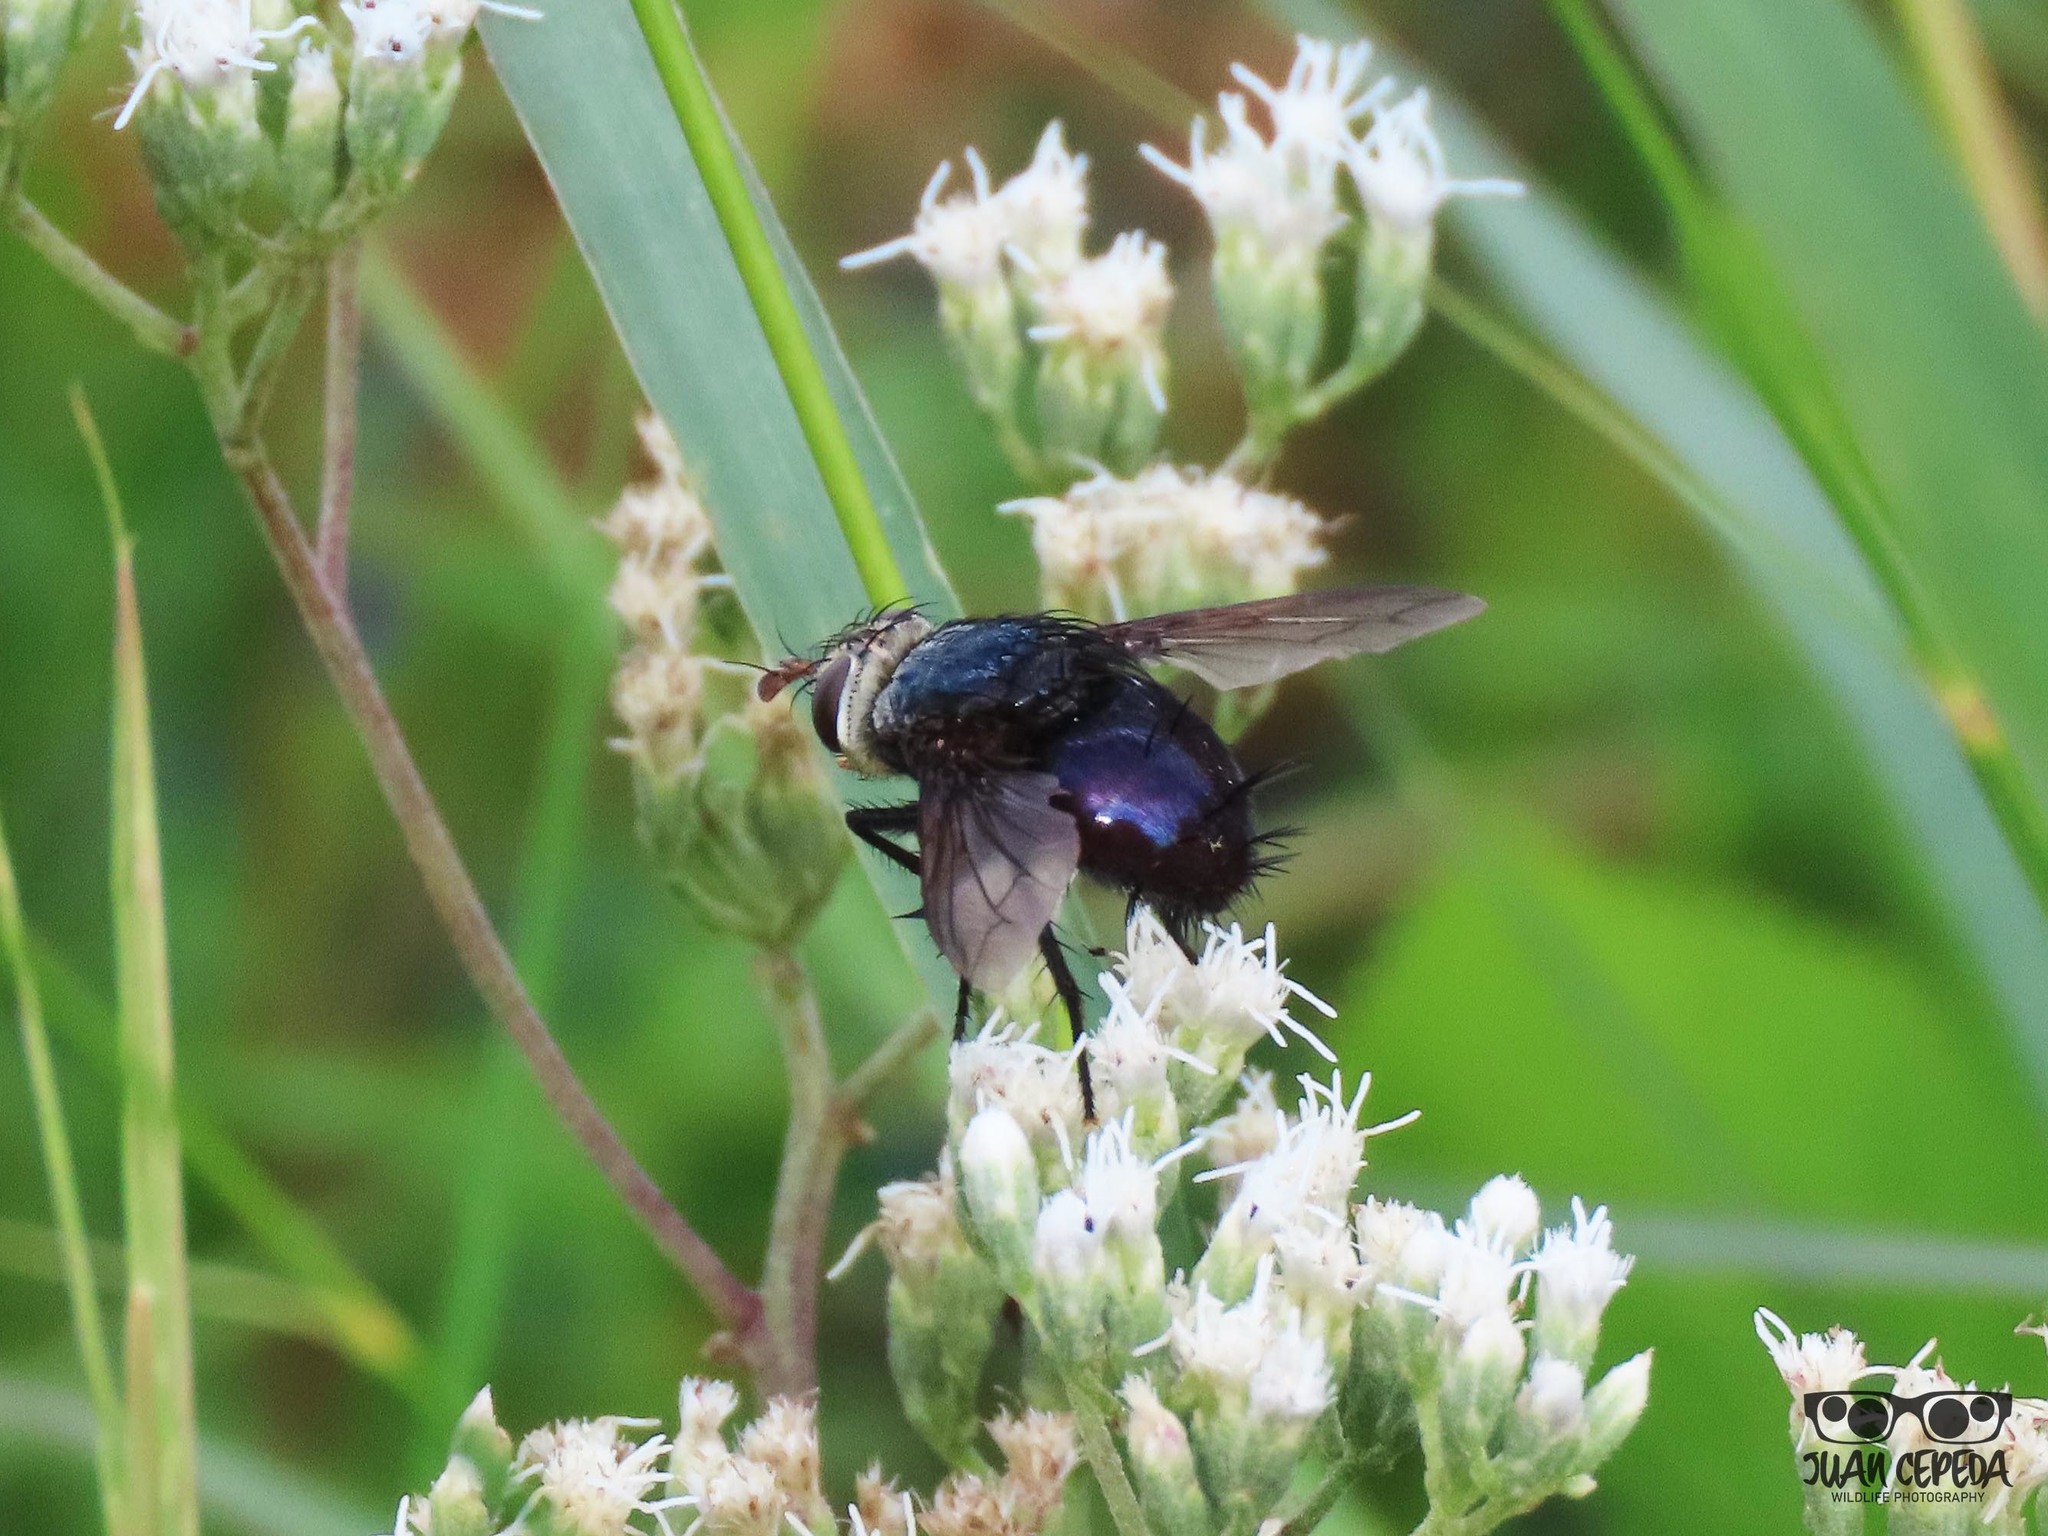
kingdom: Animalia
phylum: Arthropoda
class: Insecta
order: Diptera
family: Tachinidae
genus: Archytas
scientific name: Archytas metallicus
